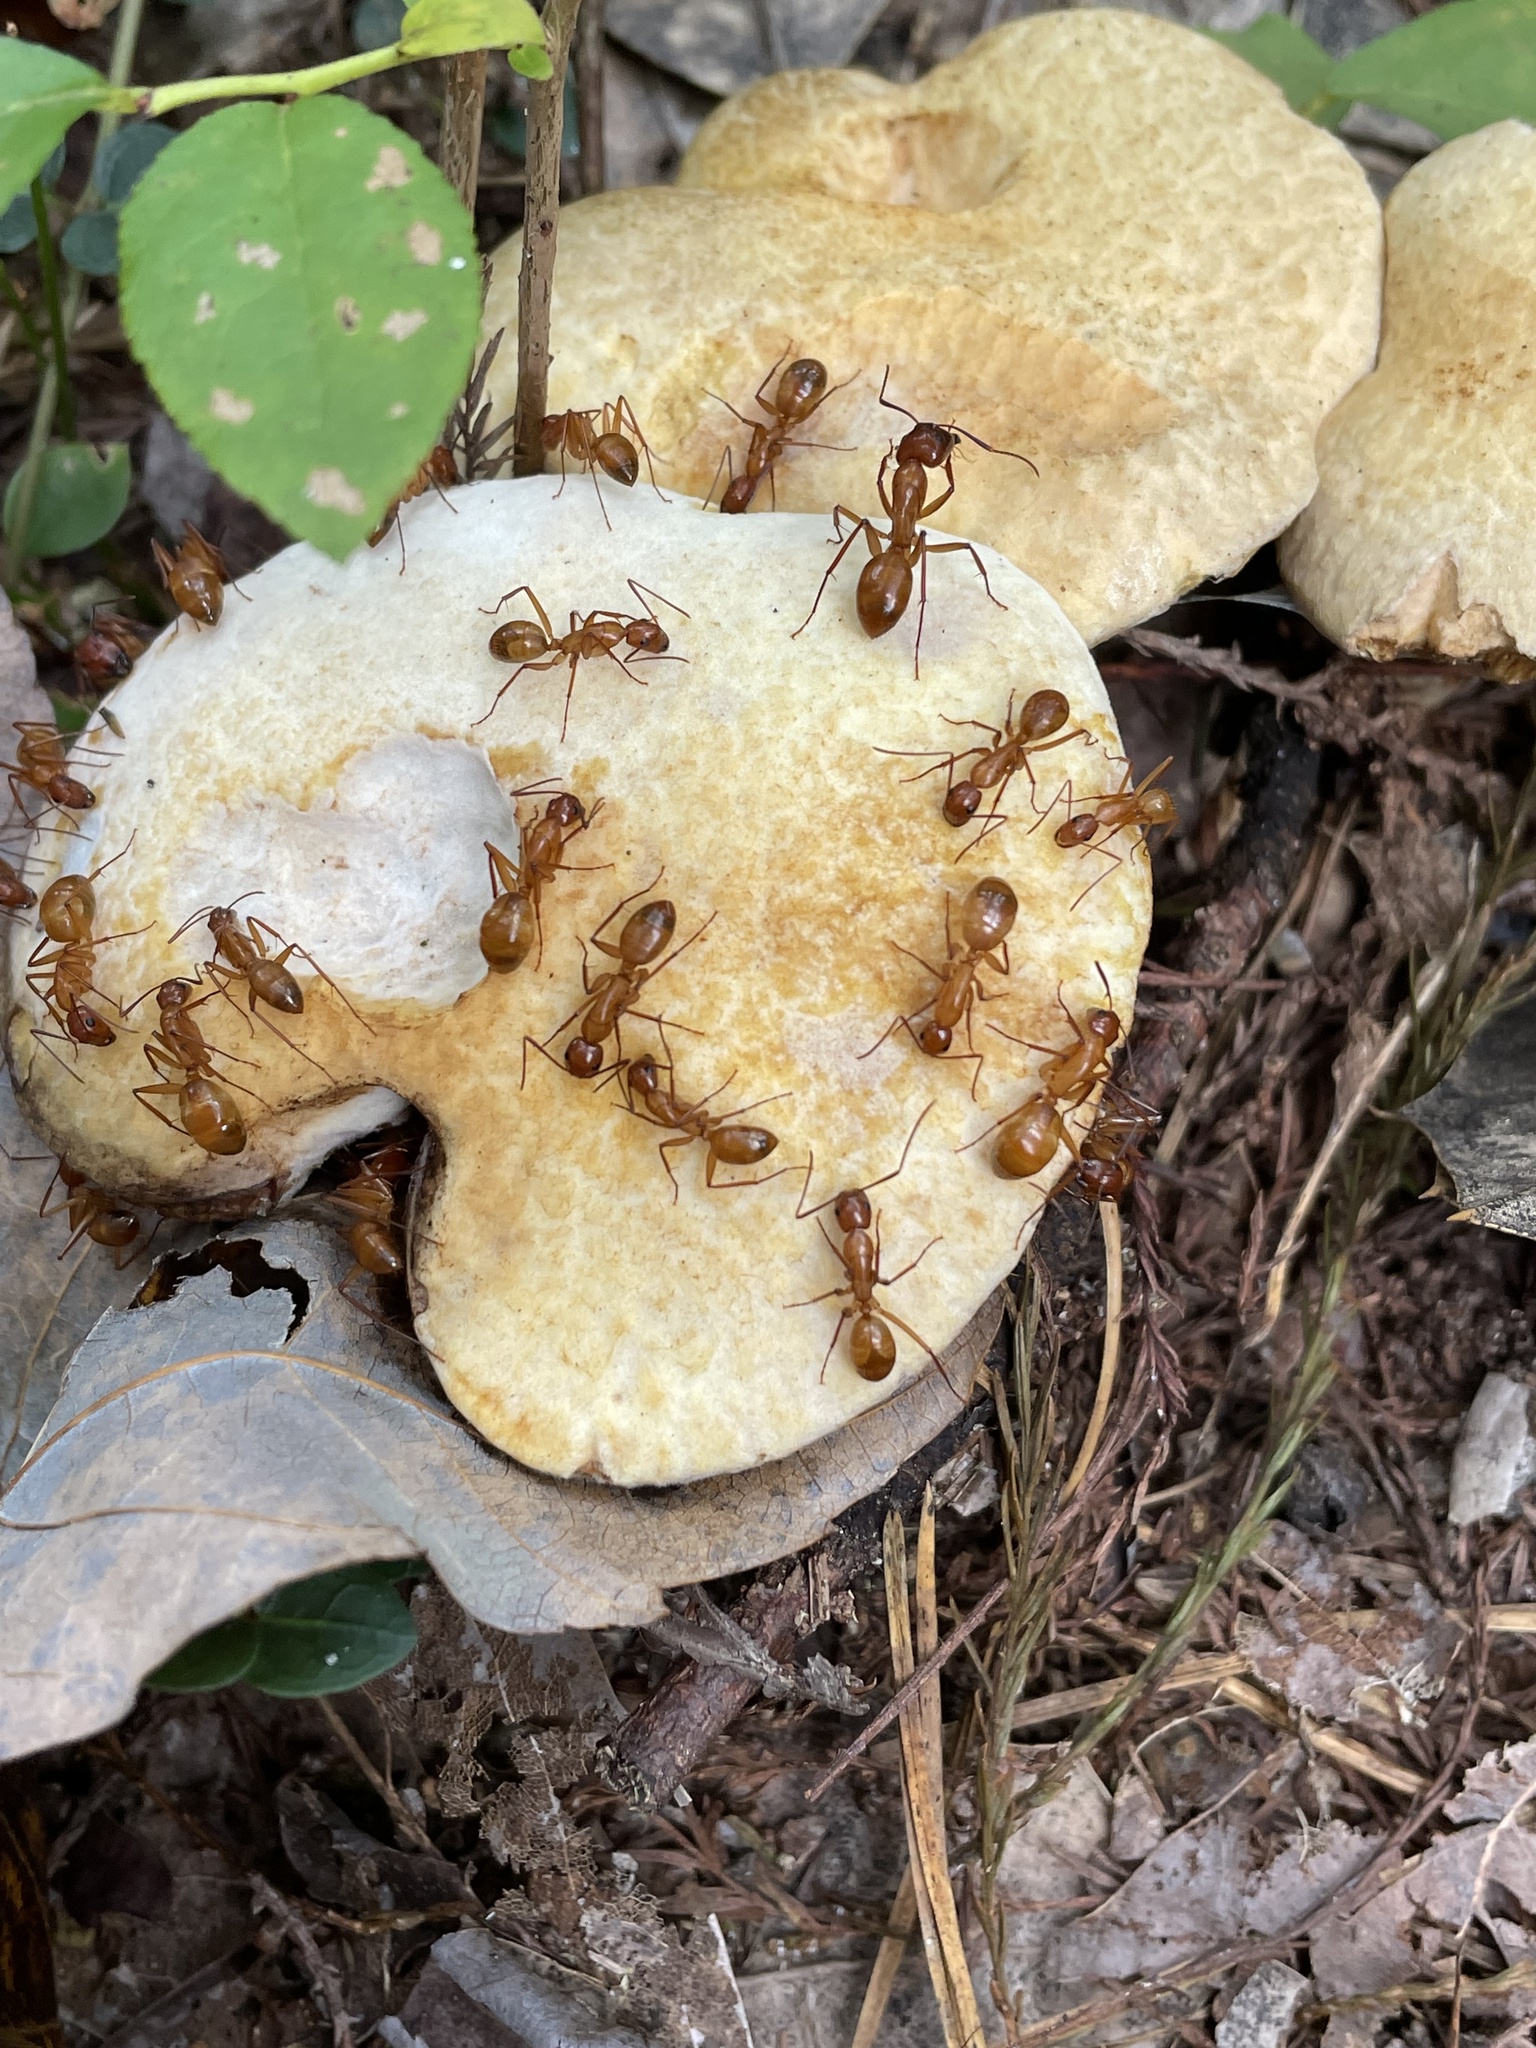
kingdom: Animalia
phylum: Arthropoda
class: Insecta
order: Hymenoptera
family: Formicidae
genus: Camponotus
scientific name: Camponotus castaneus
